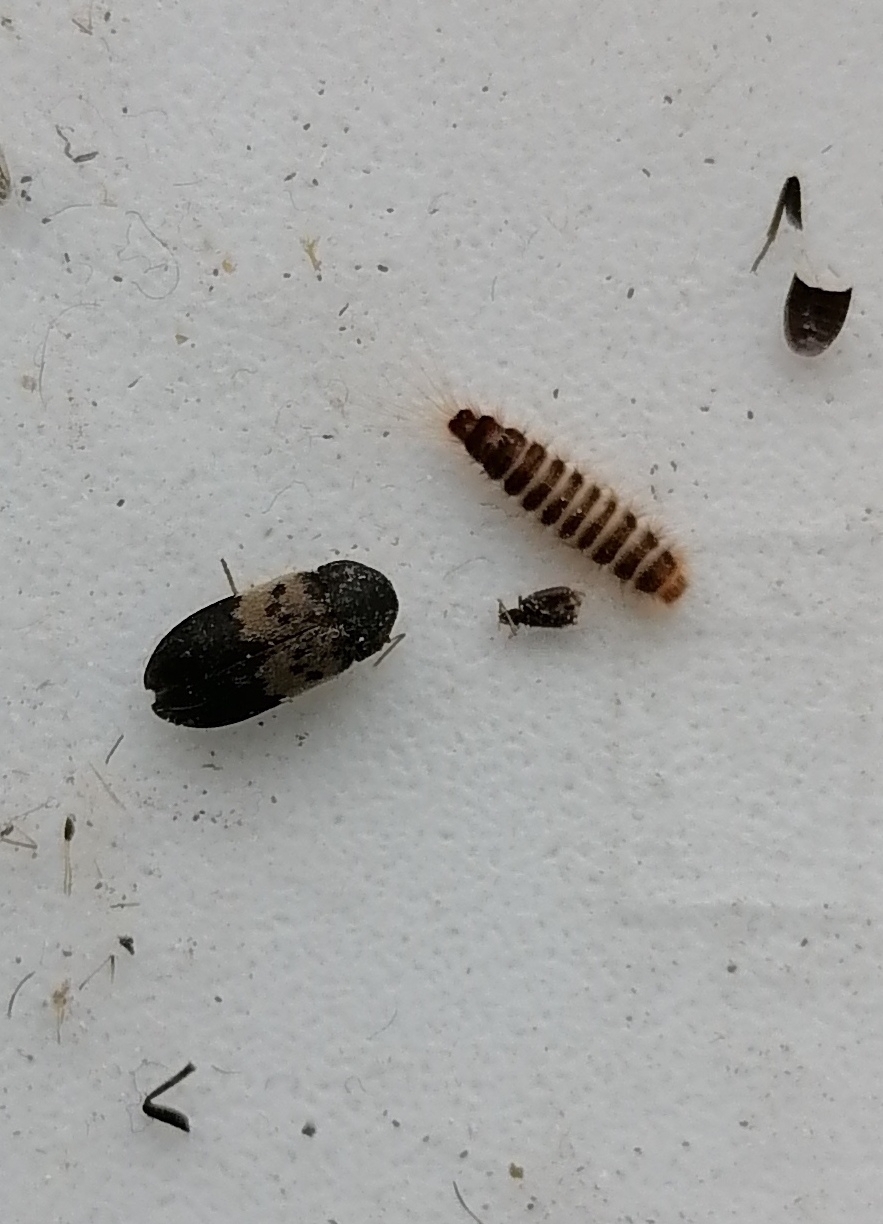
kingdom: Animalia
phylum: Arthropoda
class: Insecta
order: Coleoptera
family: Dermestidae
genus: Dermestes
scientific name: Dermestes lardarius
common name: Larder beetle
